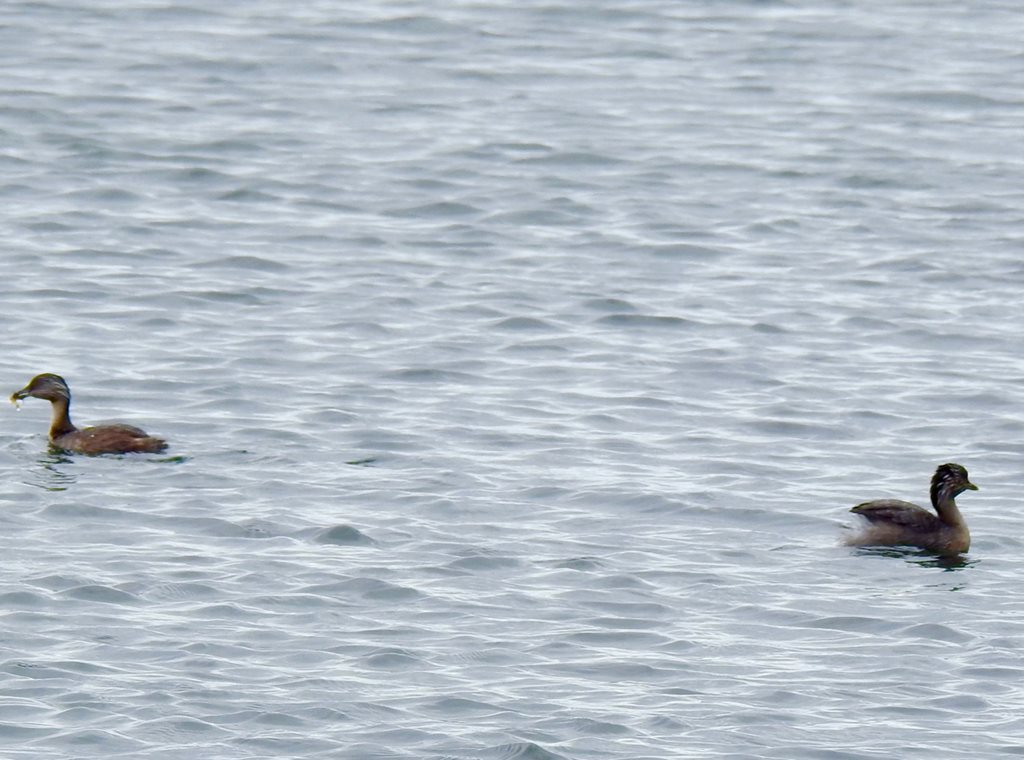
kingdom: Animalia
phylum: Chordata
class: Aves
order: Podicipediformes
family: Podicipedidae
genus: Poliocephalus
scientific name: Poliocephalus poliocephalus
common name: Hoary-headed grebe
